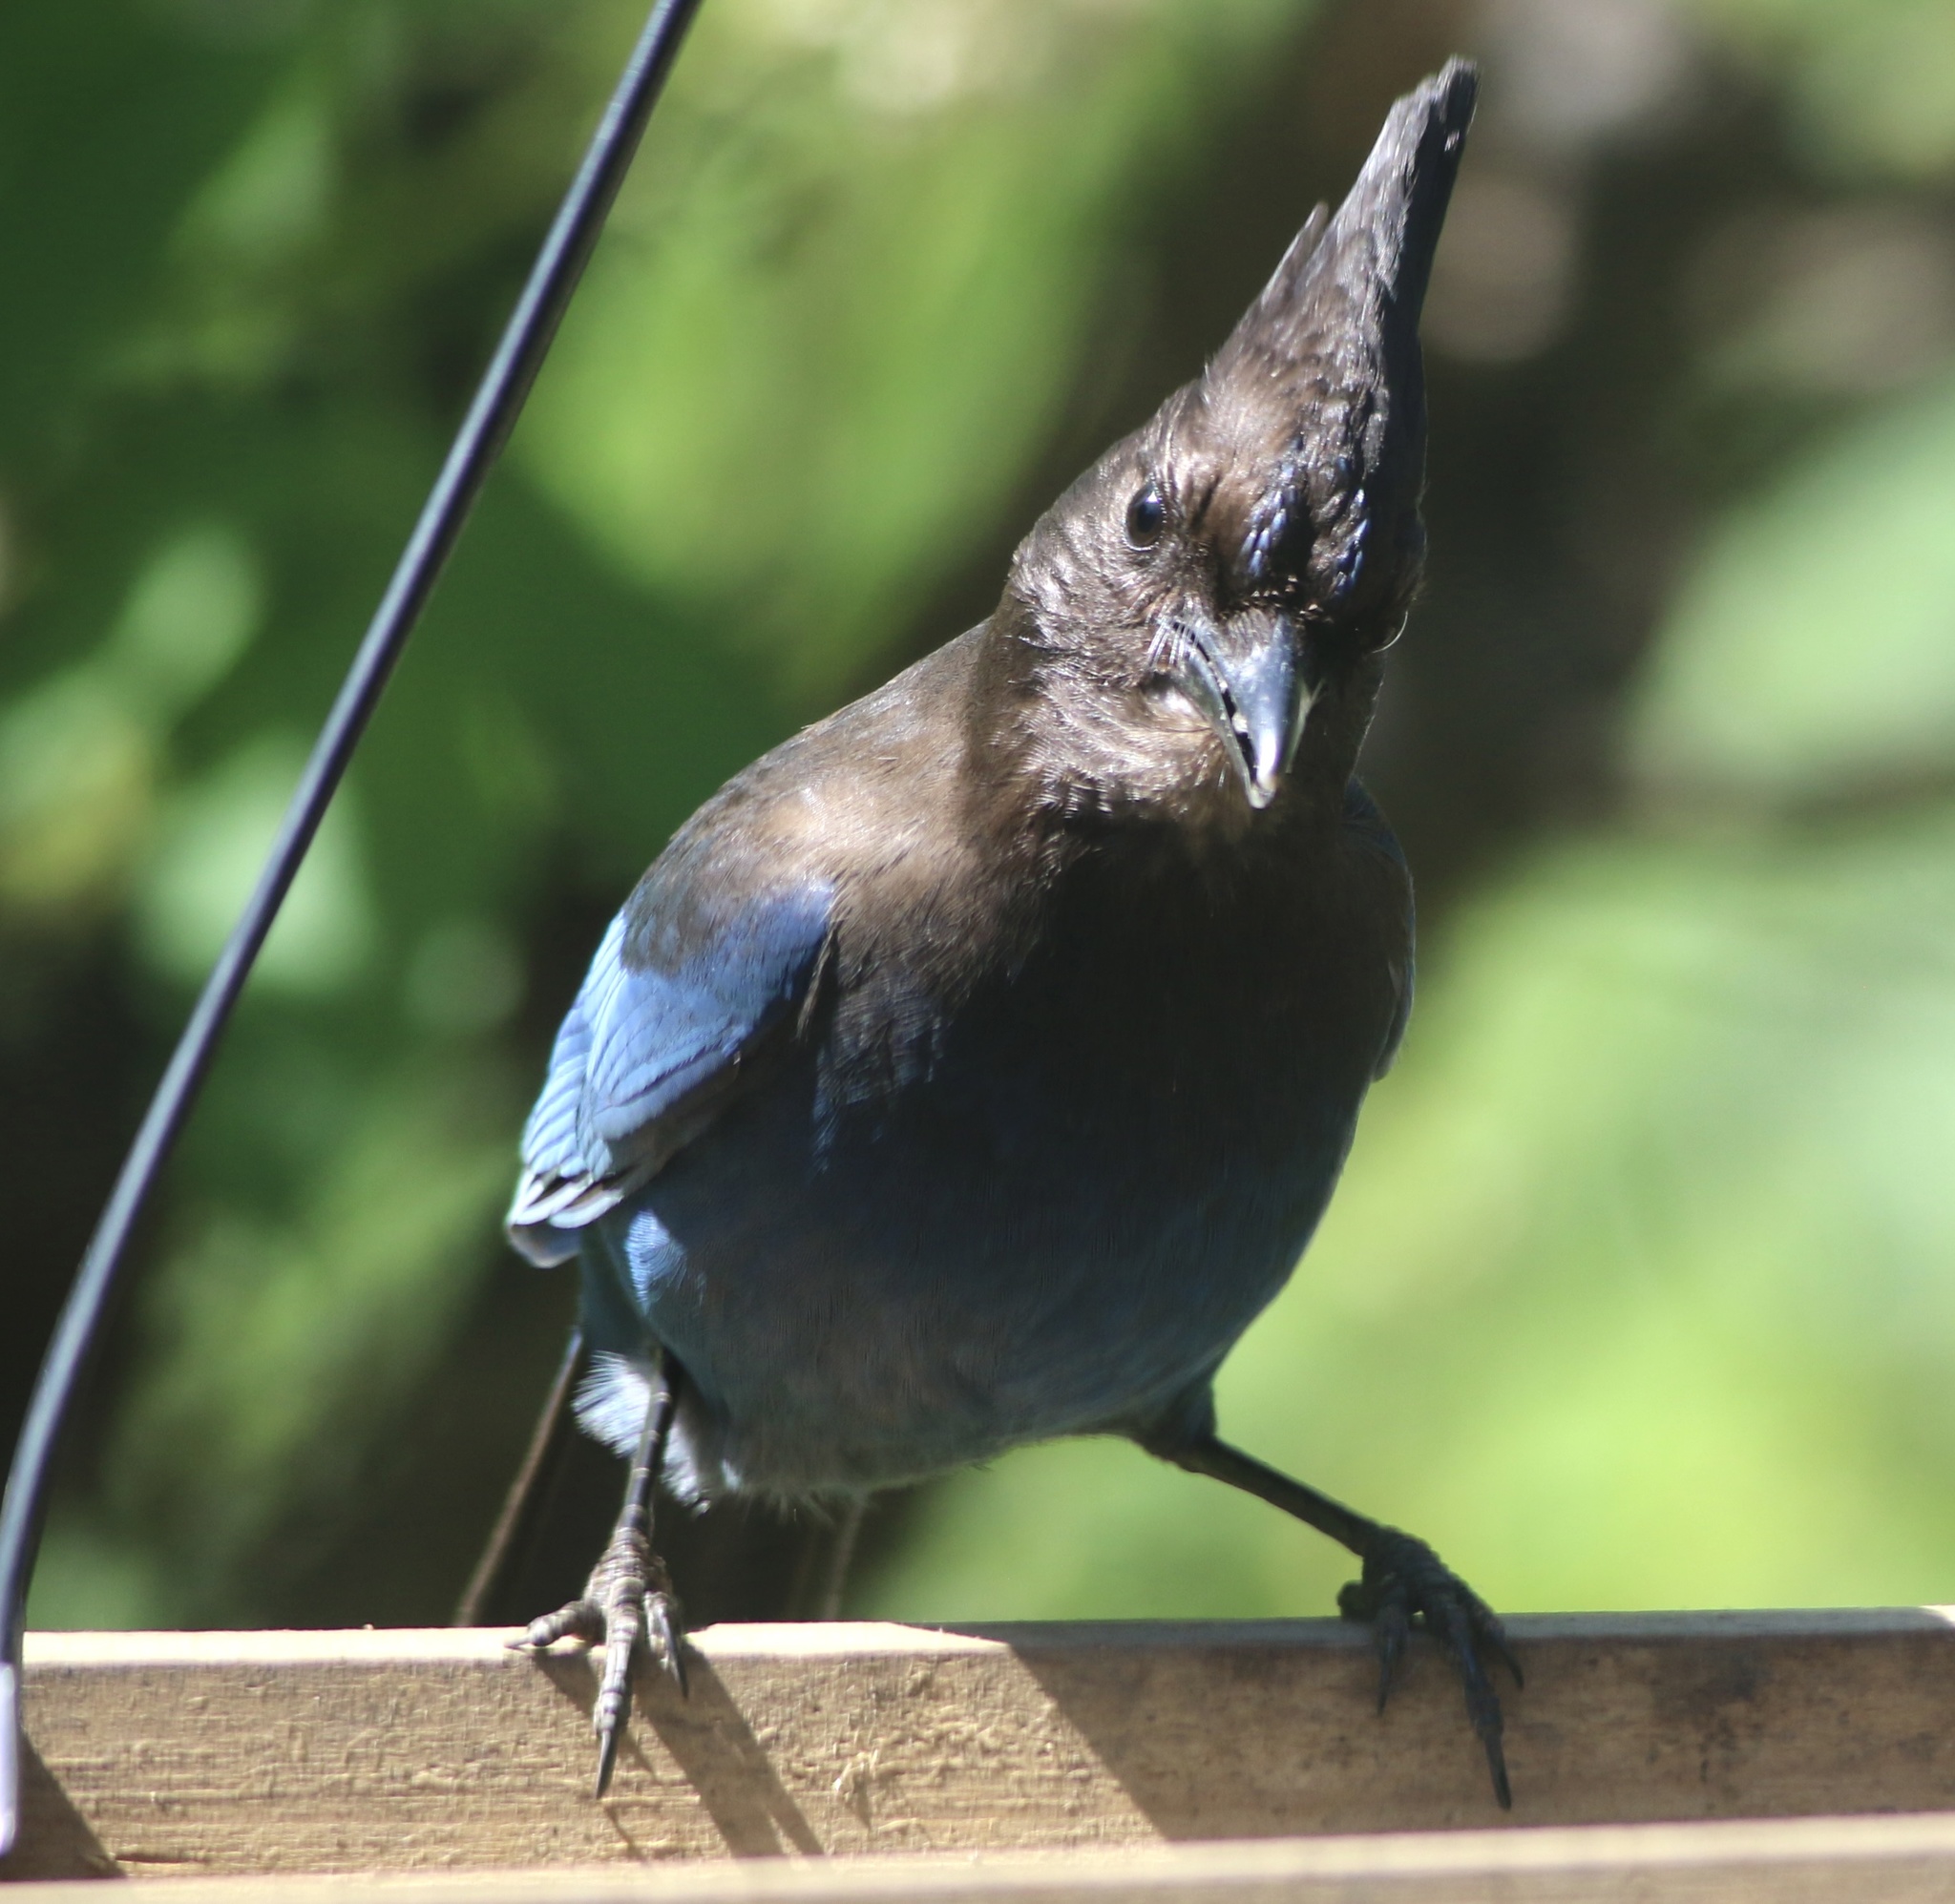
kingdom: Animalia
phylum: Chordata
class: Aves
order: Passeriformes
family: Corvidae
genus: Cyanocitta
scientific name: Cyanocitta stelleri
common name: Steller's jay
